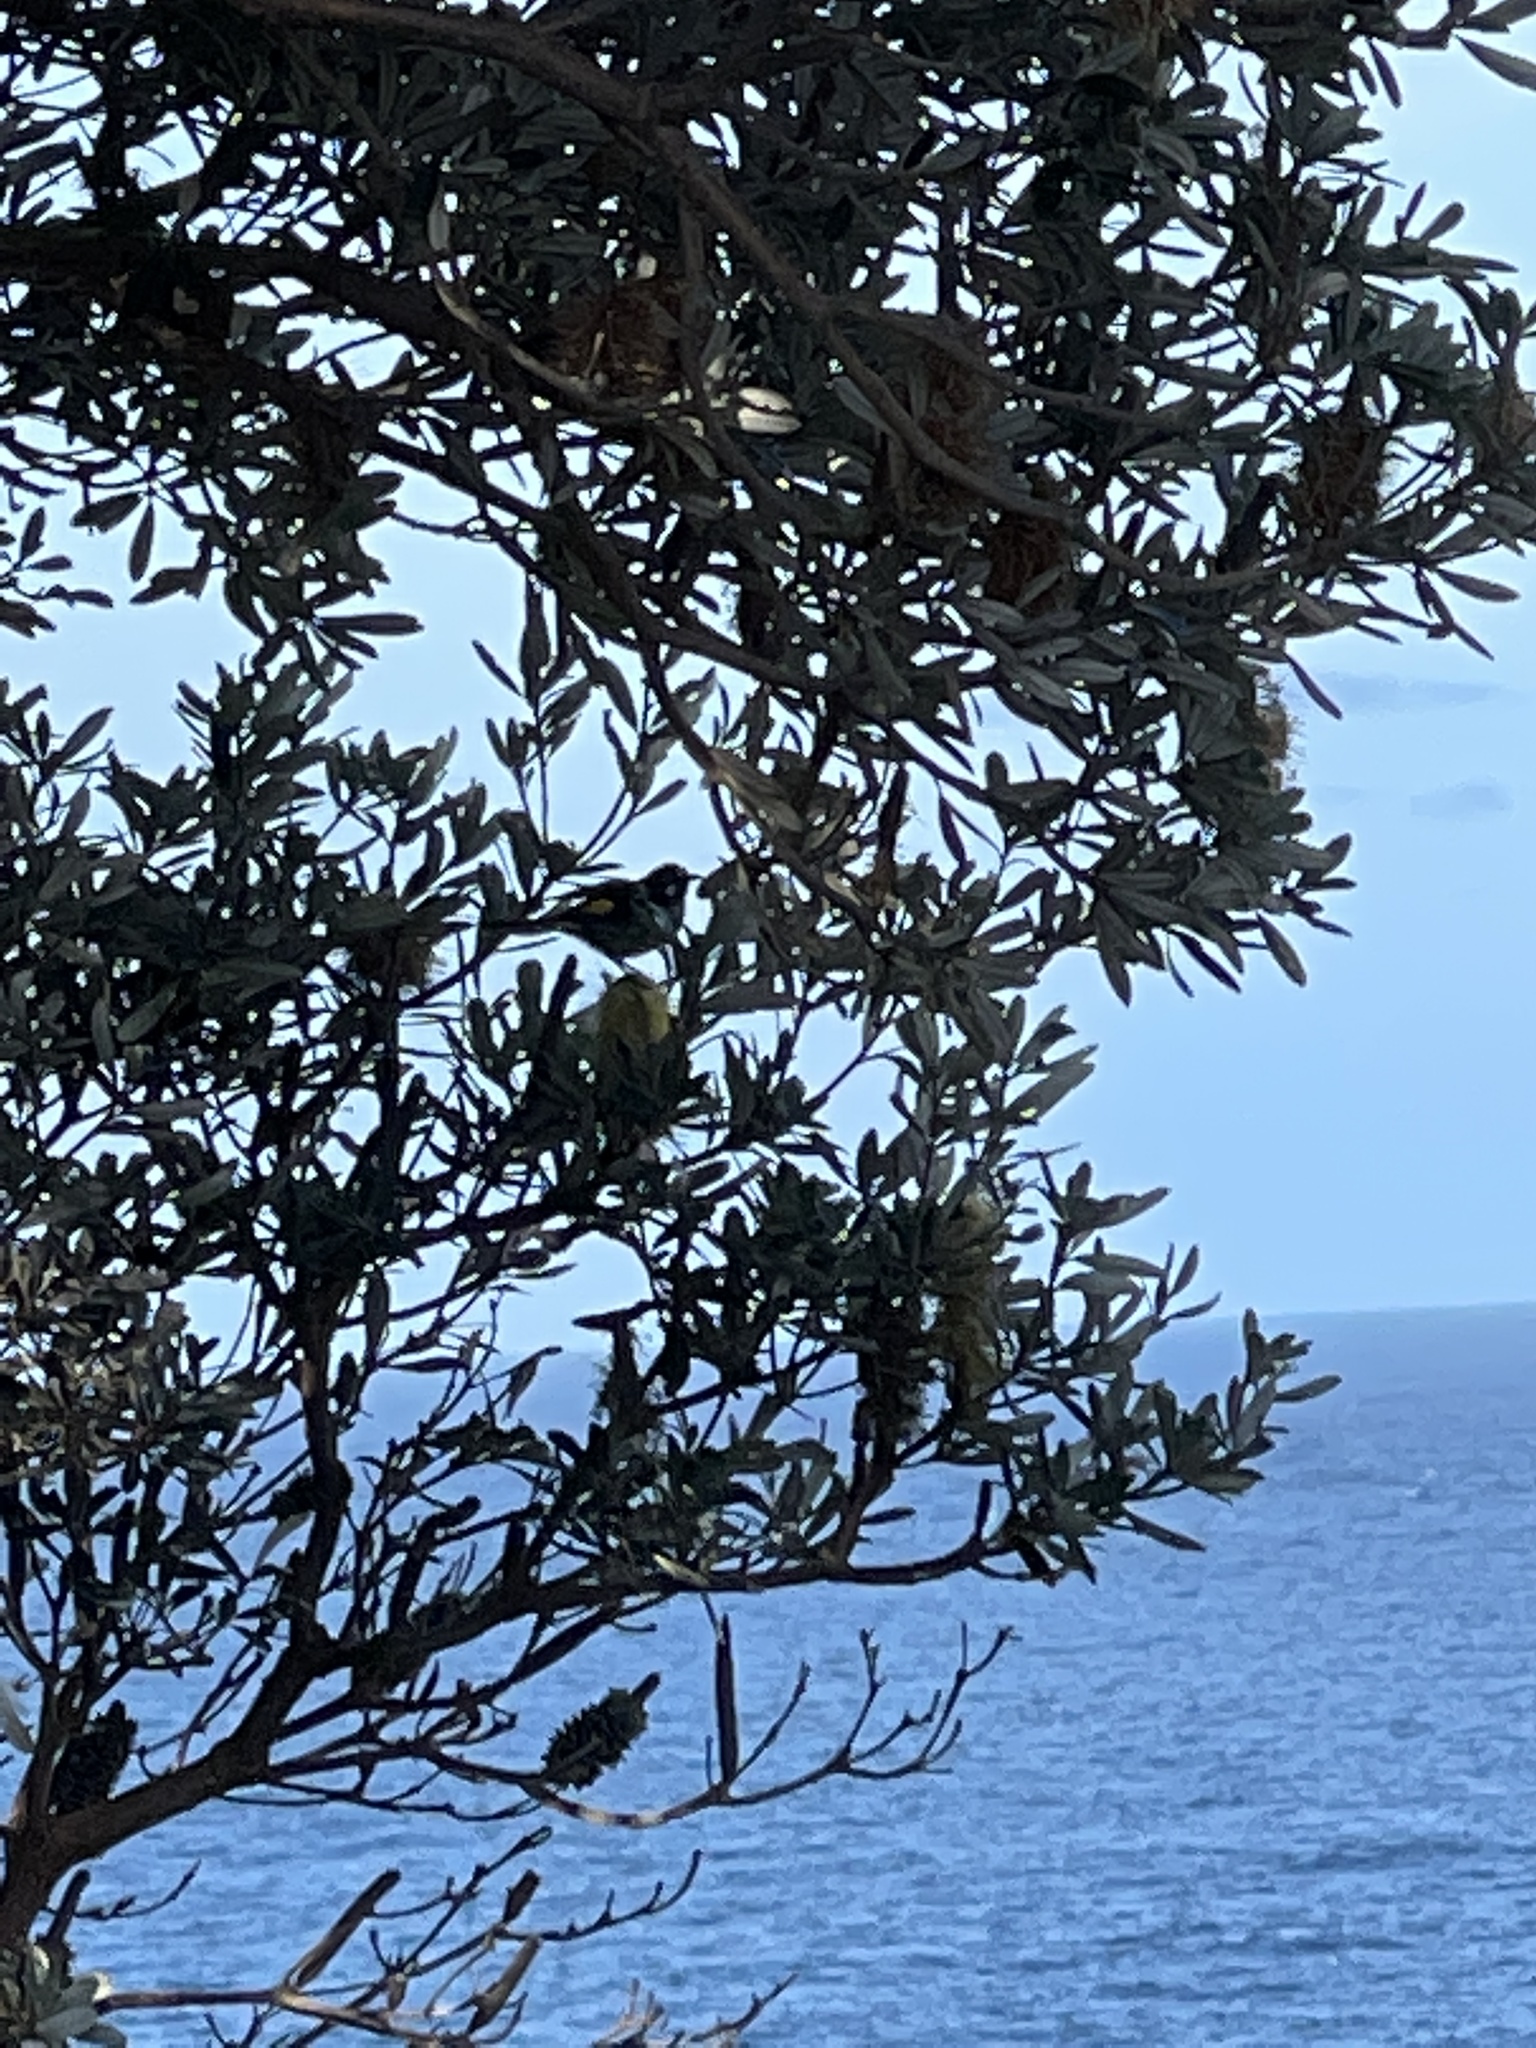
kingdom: Animalia
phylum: Chordata
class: Aves
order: Passeriformes
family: Meliphagidae
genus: Phylidonyris
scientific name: Phylidonyris novaehollandiae
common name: New holland honeyeater
